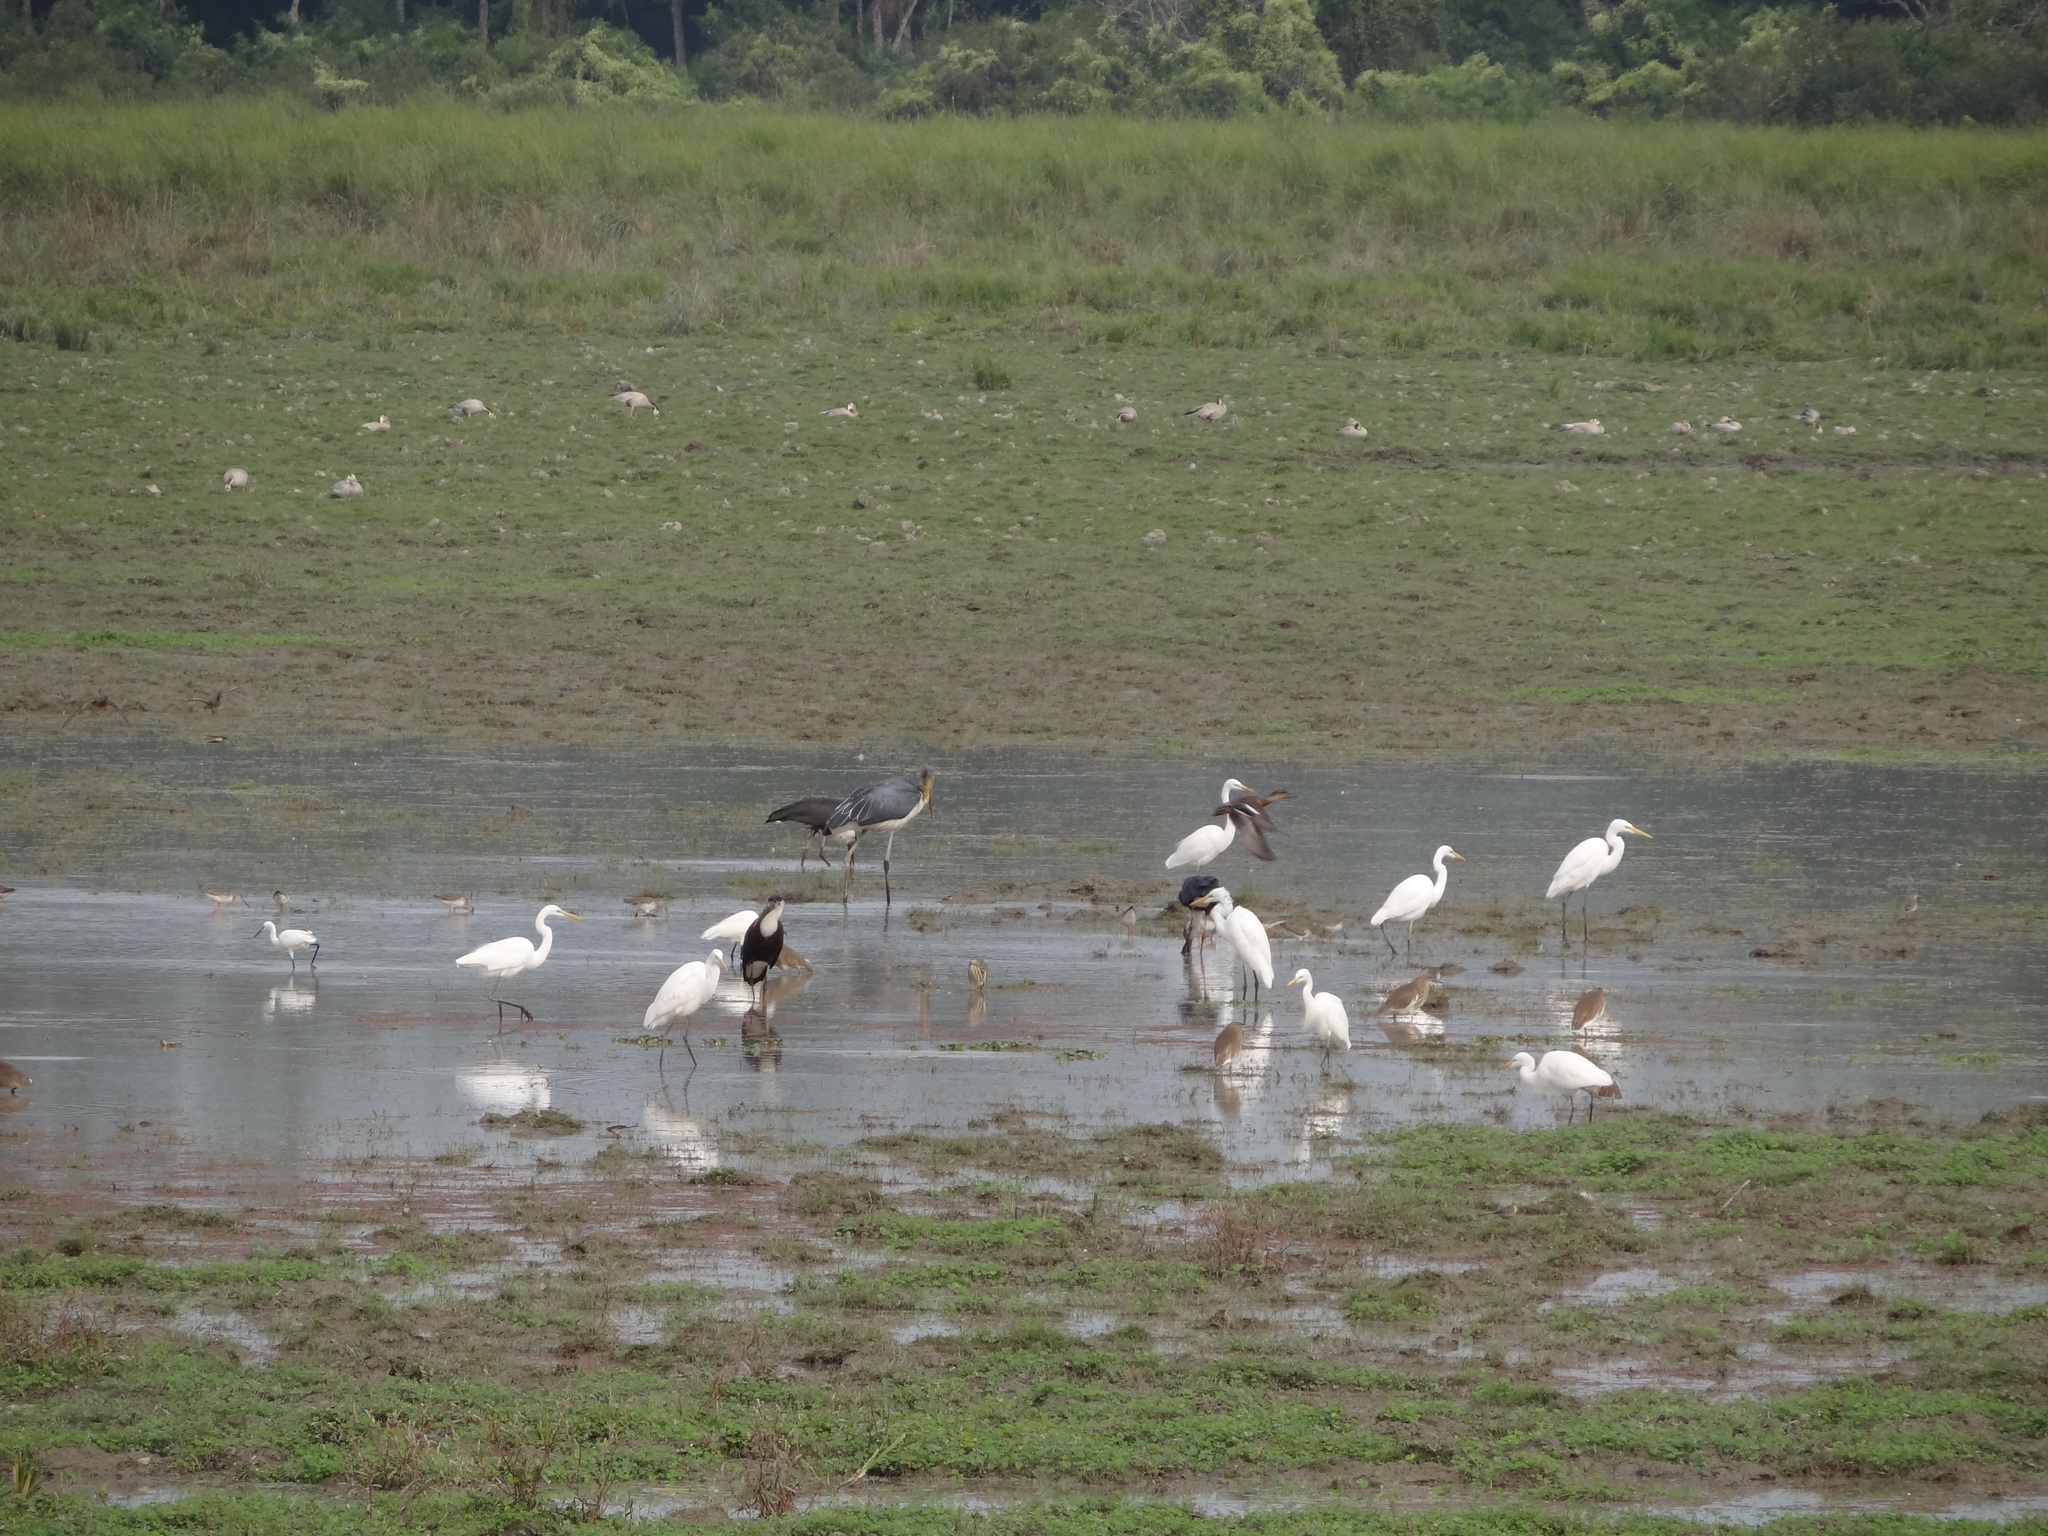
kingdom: Animalia
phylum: Chordata
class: Aves
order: Pelecaniformes
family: Ardeidae
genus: Egretta
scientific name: Egretta intermedia
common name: Intermediate egret
